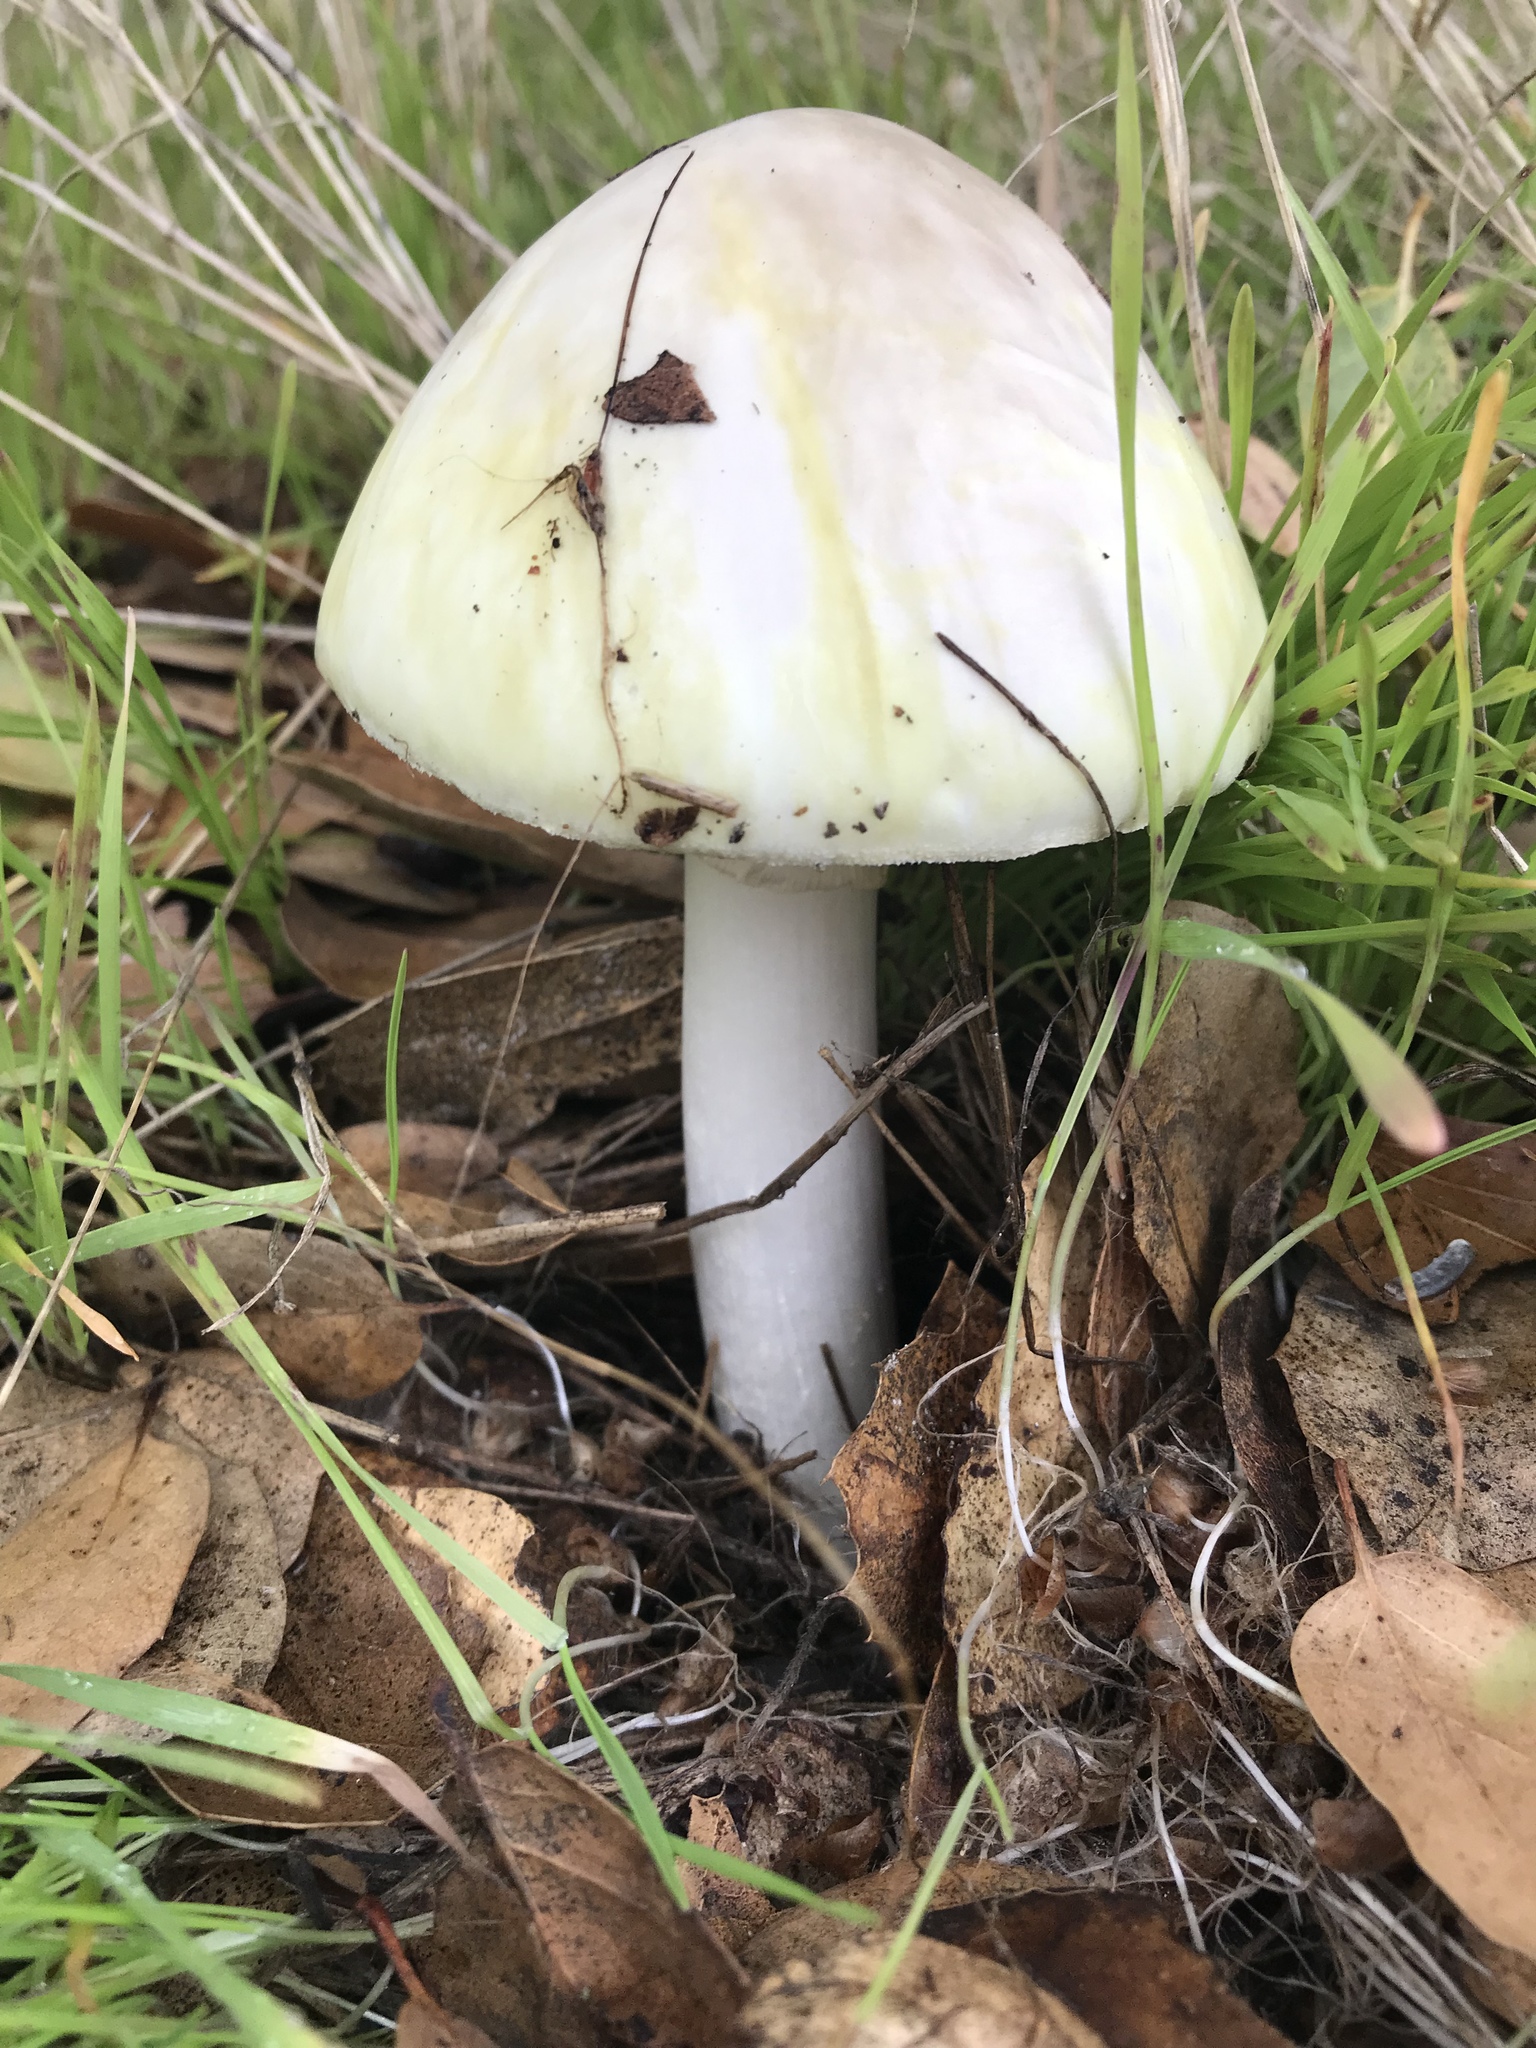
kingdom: Fungi
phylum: Basidiomycota
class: Agaricomycetes
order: Agaricales
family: Amanitaceae
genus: Amanita
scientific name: Amanita phalloides
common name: Death cap
